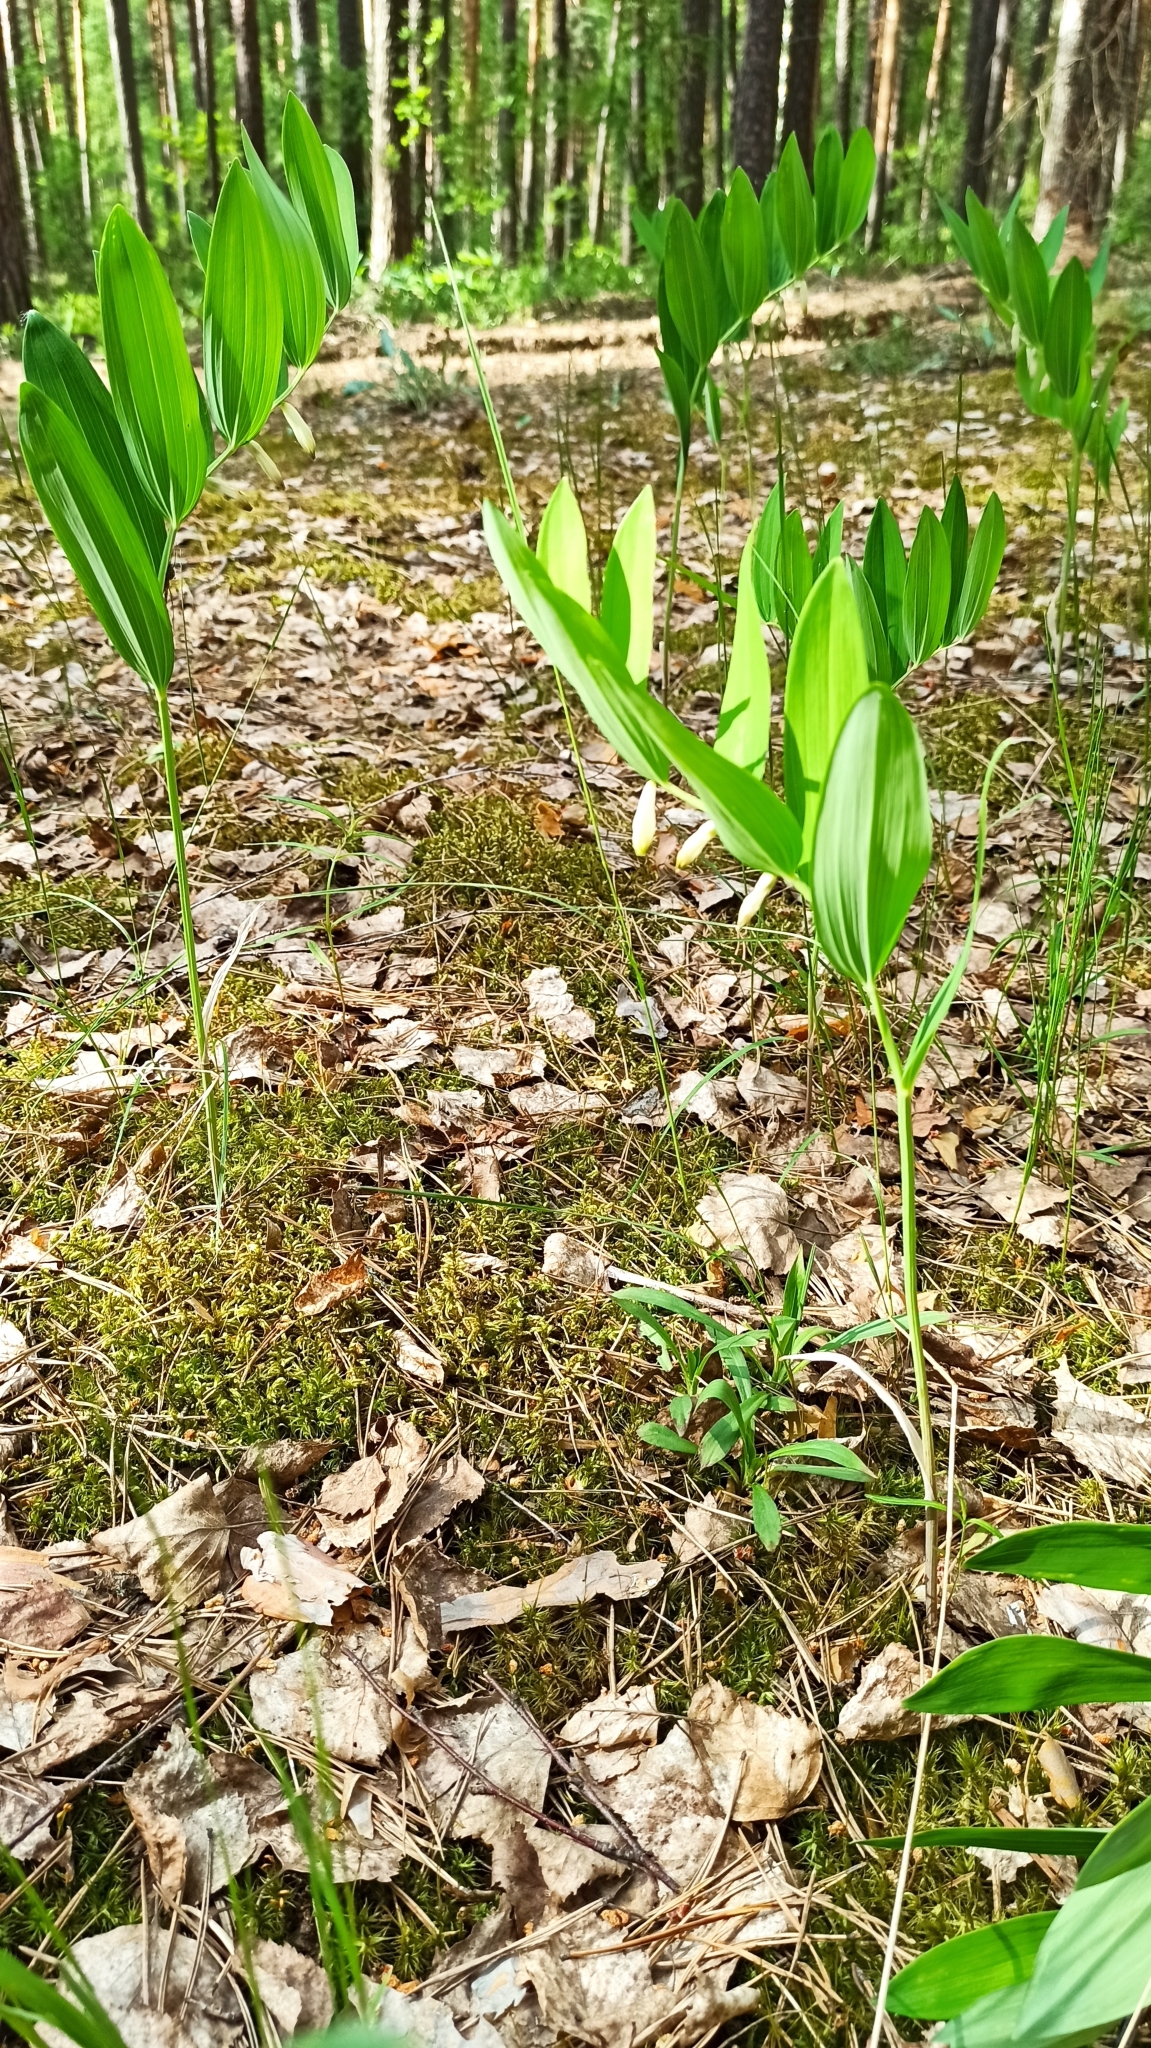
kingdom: Plantae
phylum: Tracheophyta
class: Liliopsida
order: Asparagales
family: Asparagaceae
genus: Polygonatum
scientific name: Polygonatum odoratum
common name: Angular solomon's-seal
